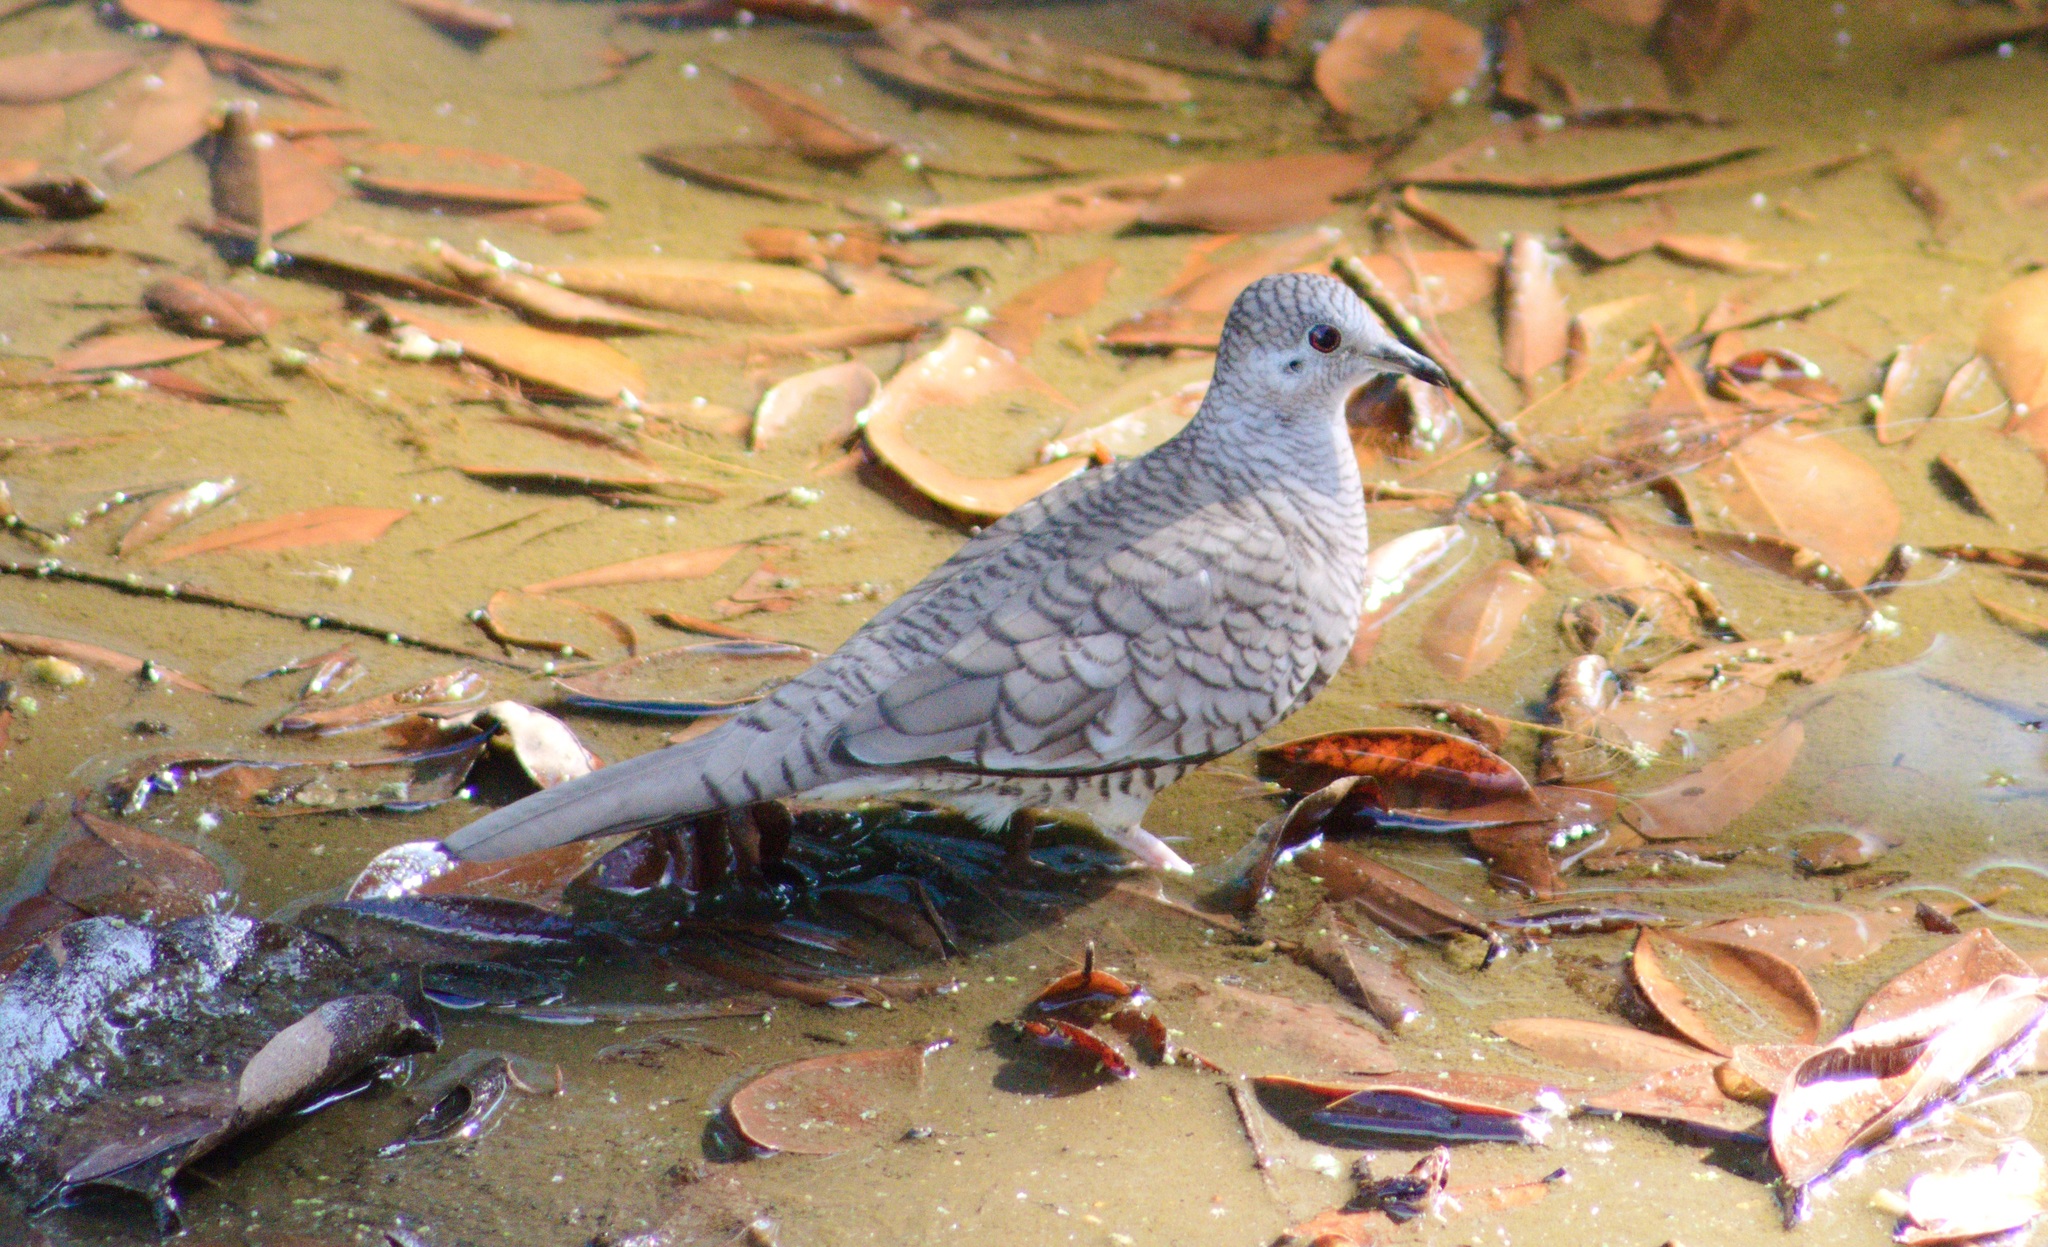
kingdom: Animalia
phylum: Chordata
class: Aves
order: Columbiformes
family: Columbidae
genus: Columbina
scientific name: Columbina inca
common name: Inca dove
